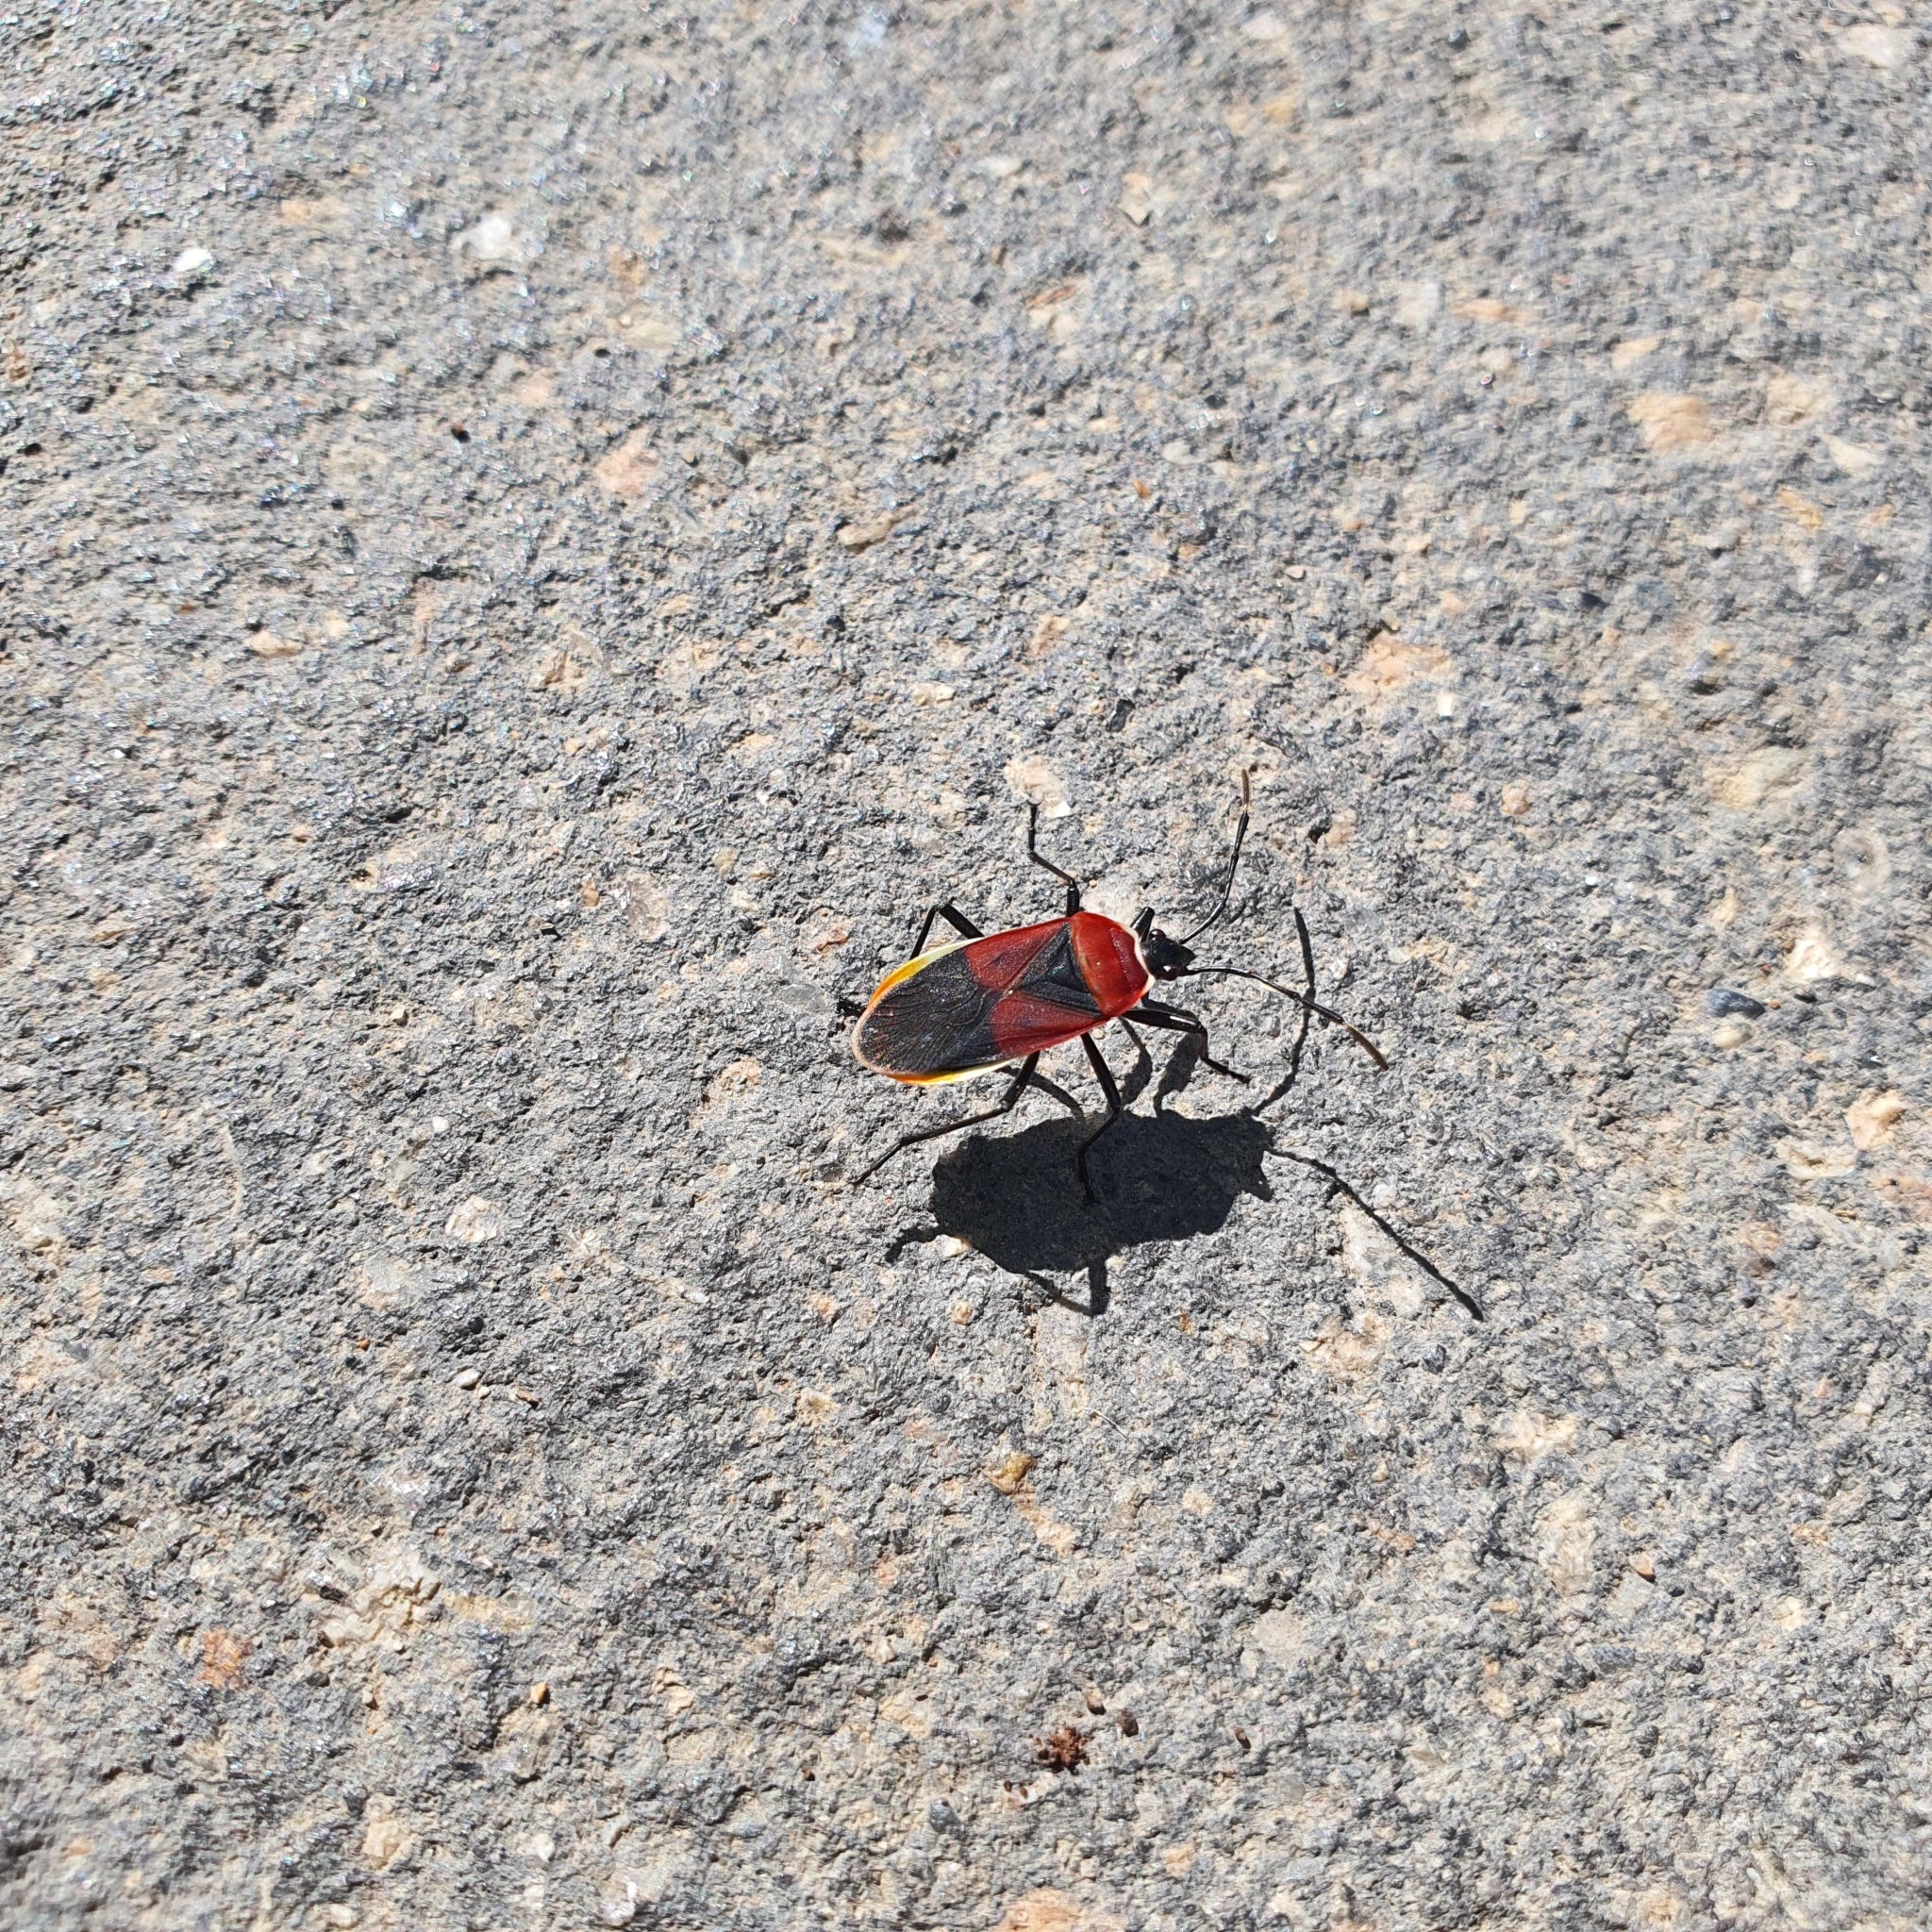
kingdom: Animalia
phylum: Arthropoda
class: Insecta
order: Hemiptera
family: Pyrrhocoridae
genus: Dindymus
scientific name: Dindymus
